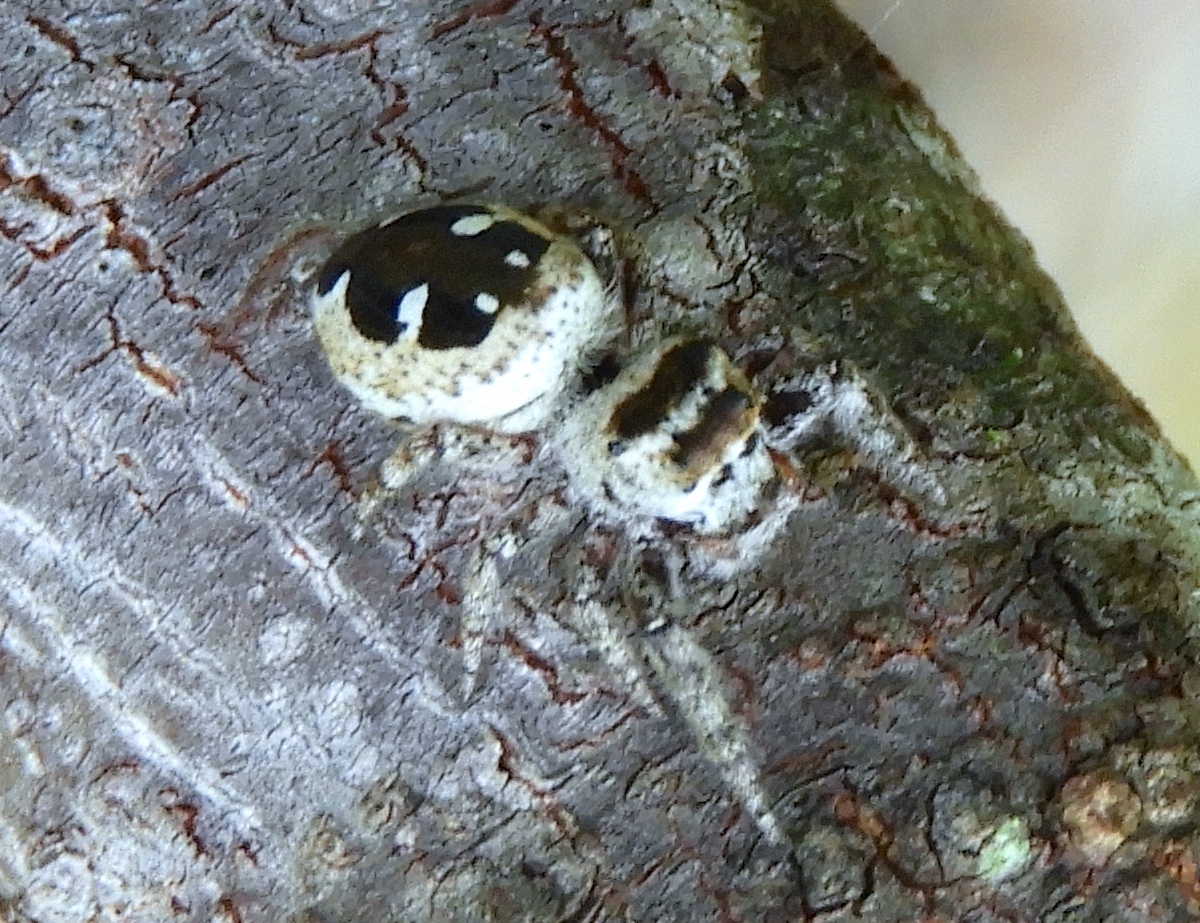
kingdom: Animalia
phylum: Arthropoda
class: Arachnida
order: Araneae
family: Salticidae
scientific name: Salticidae
